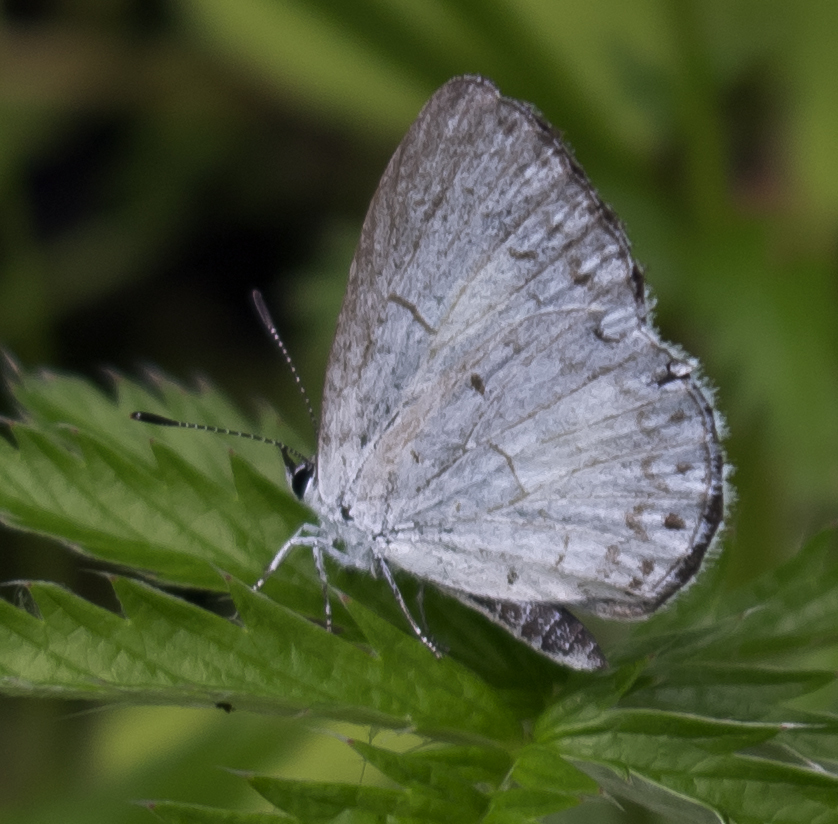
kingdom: Animalia
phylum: Arthropoda
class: Insecta
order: Lepidoptera
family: Lycaenidae
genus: Cyaniris
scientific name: Cyaniris neglecta
